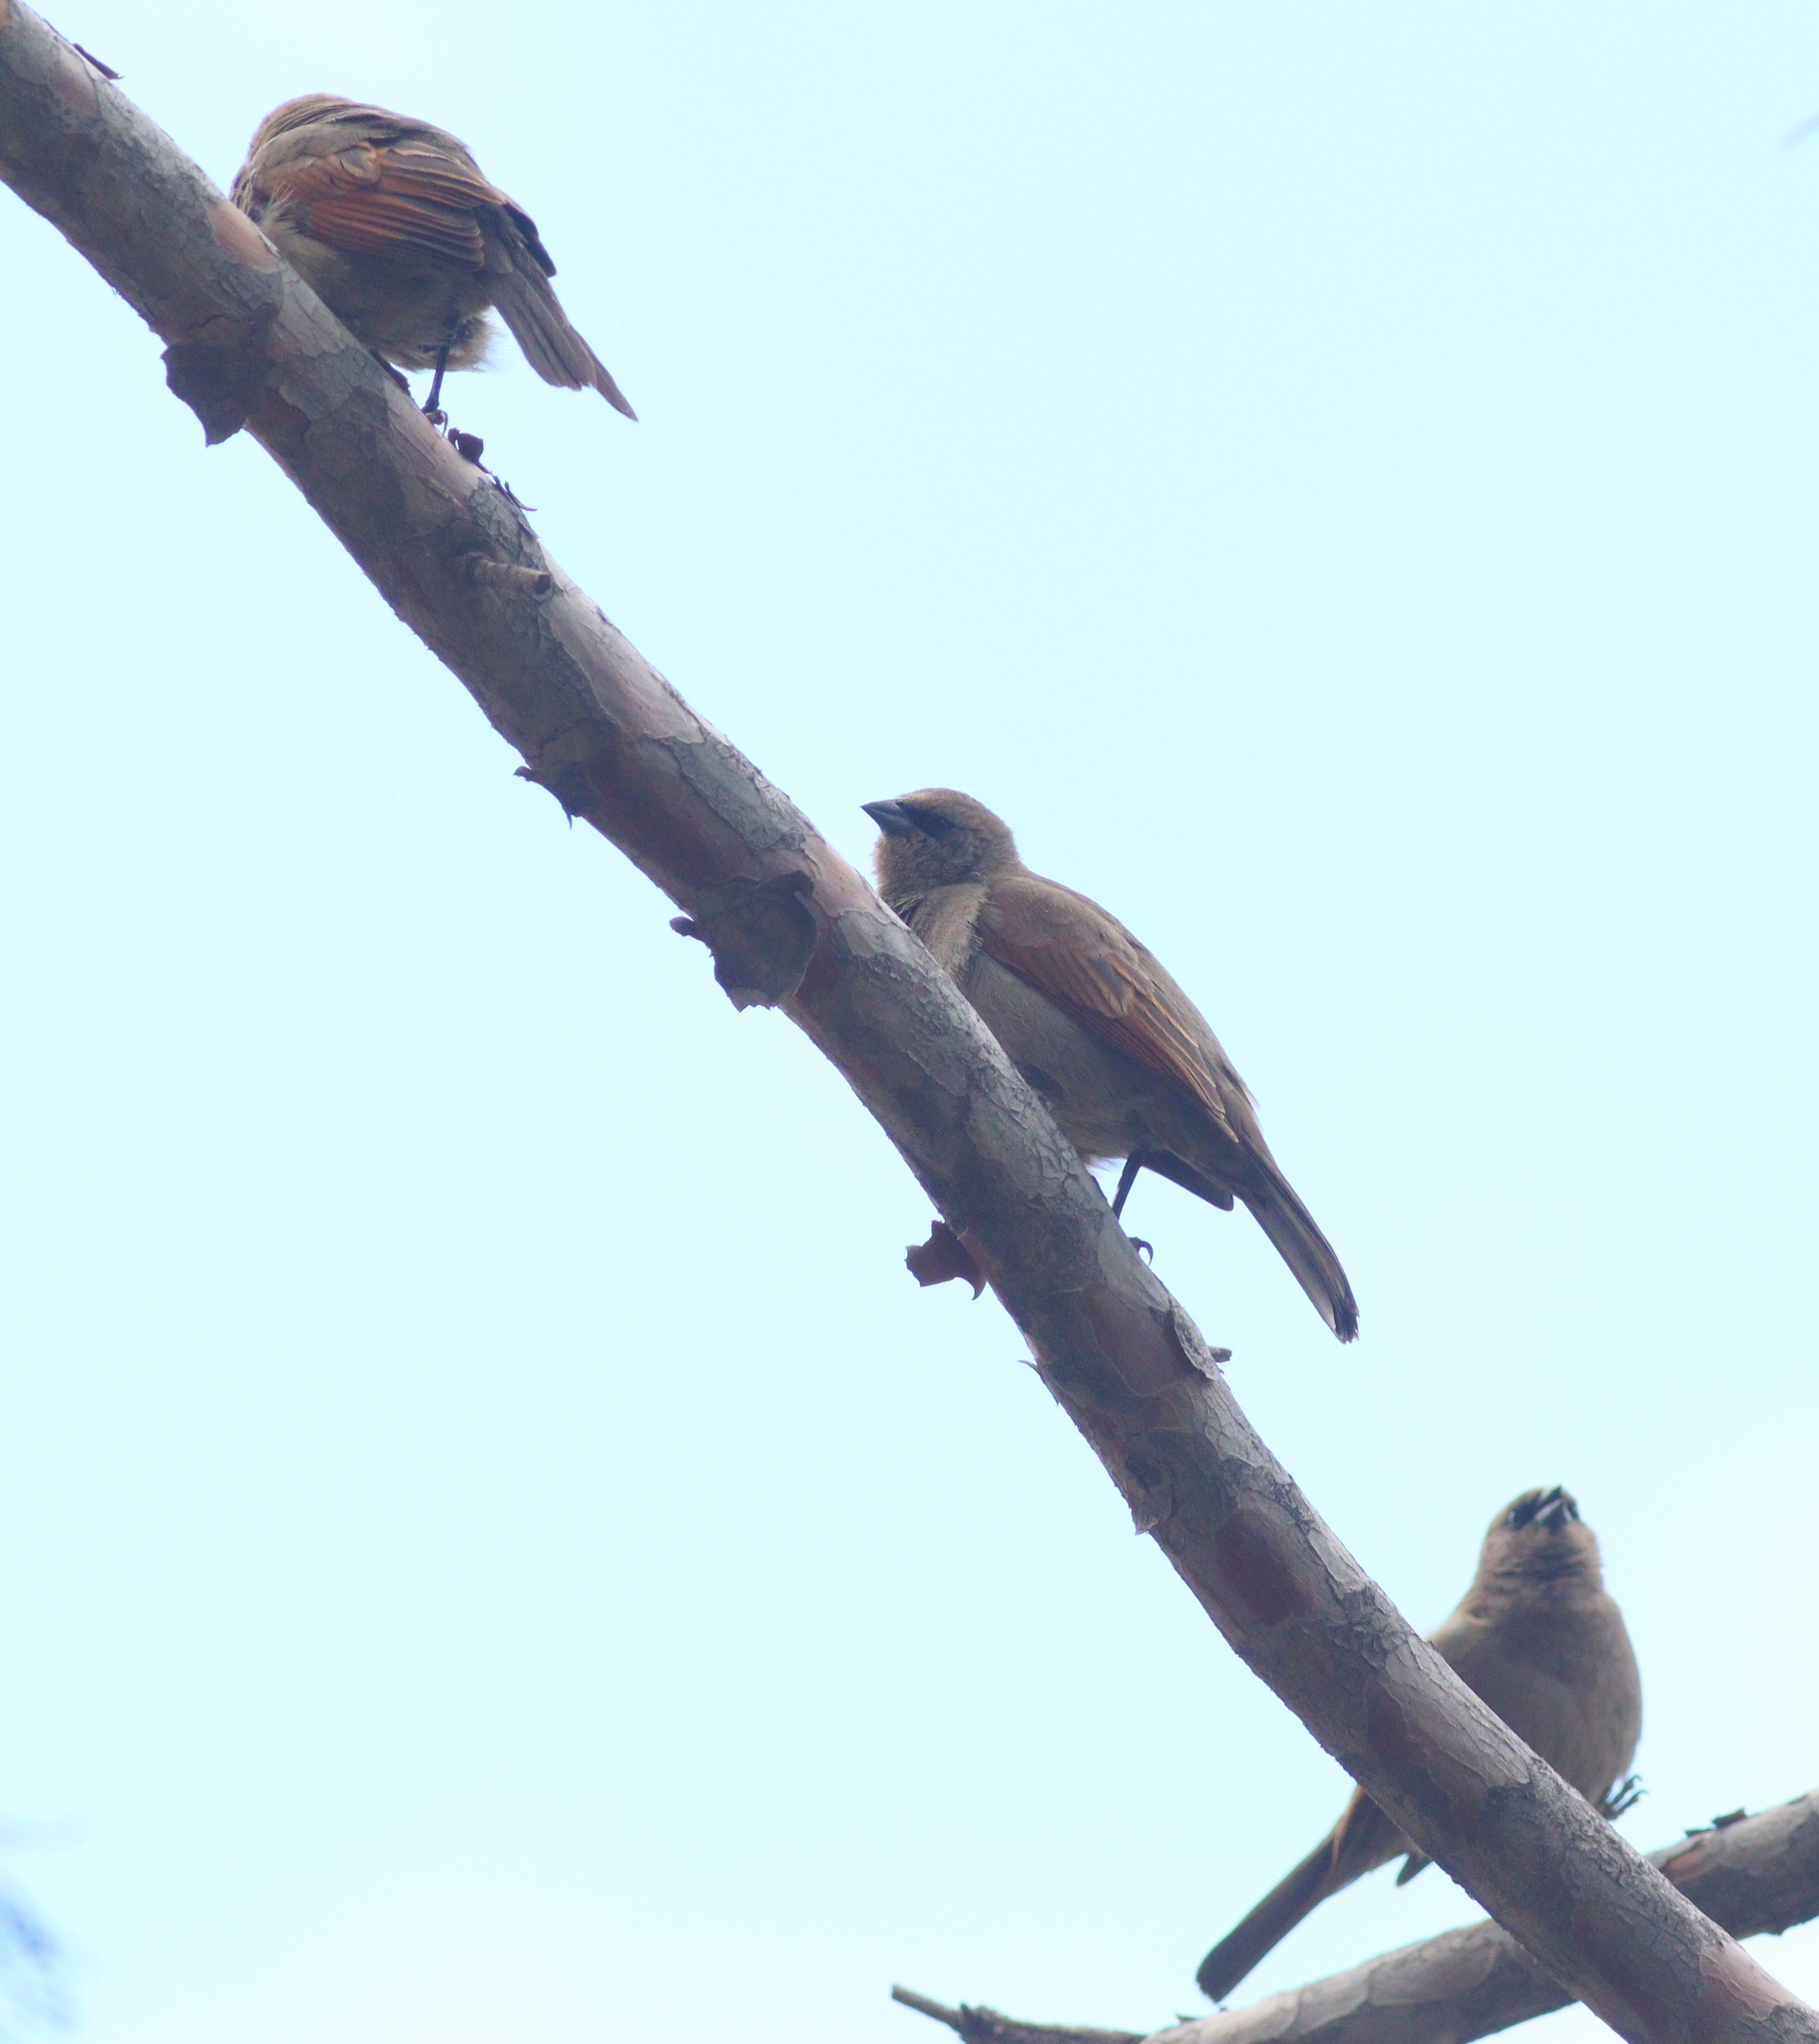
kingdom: Animalia
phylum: Chordata
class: Aves
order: Passeriformes
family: Icteridae
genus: Agelaioides
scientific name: Agelaioides badius
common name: Baywing
